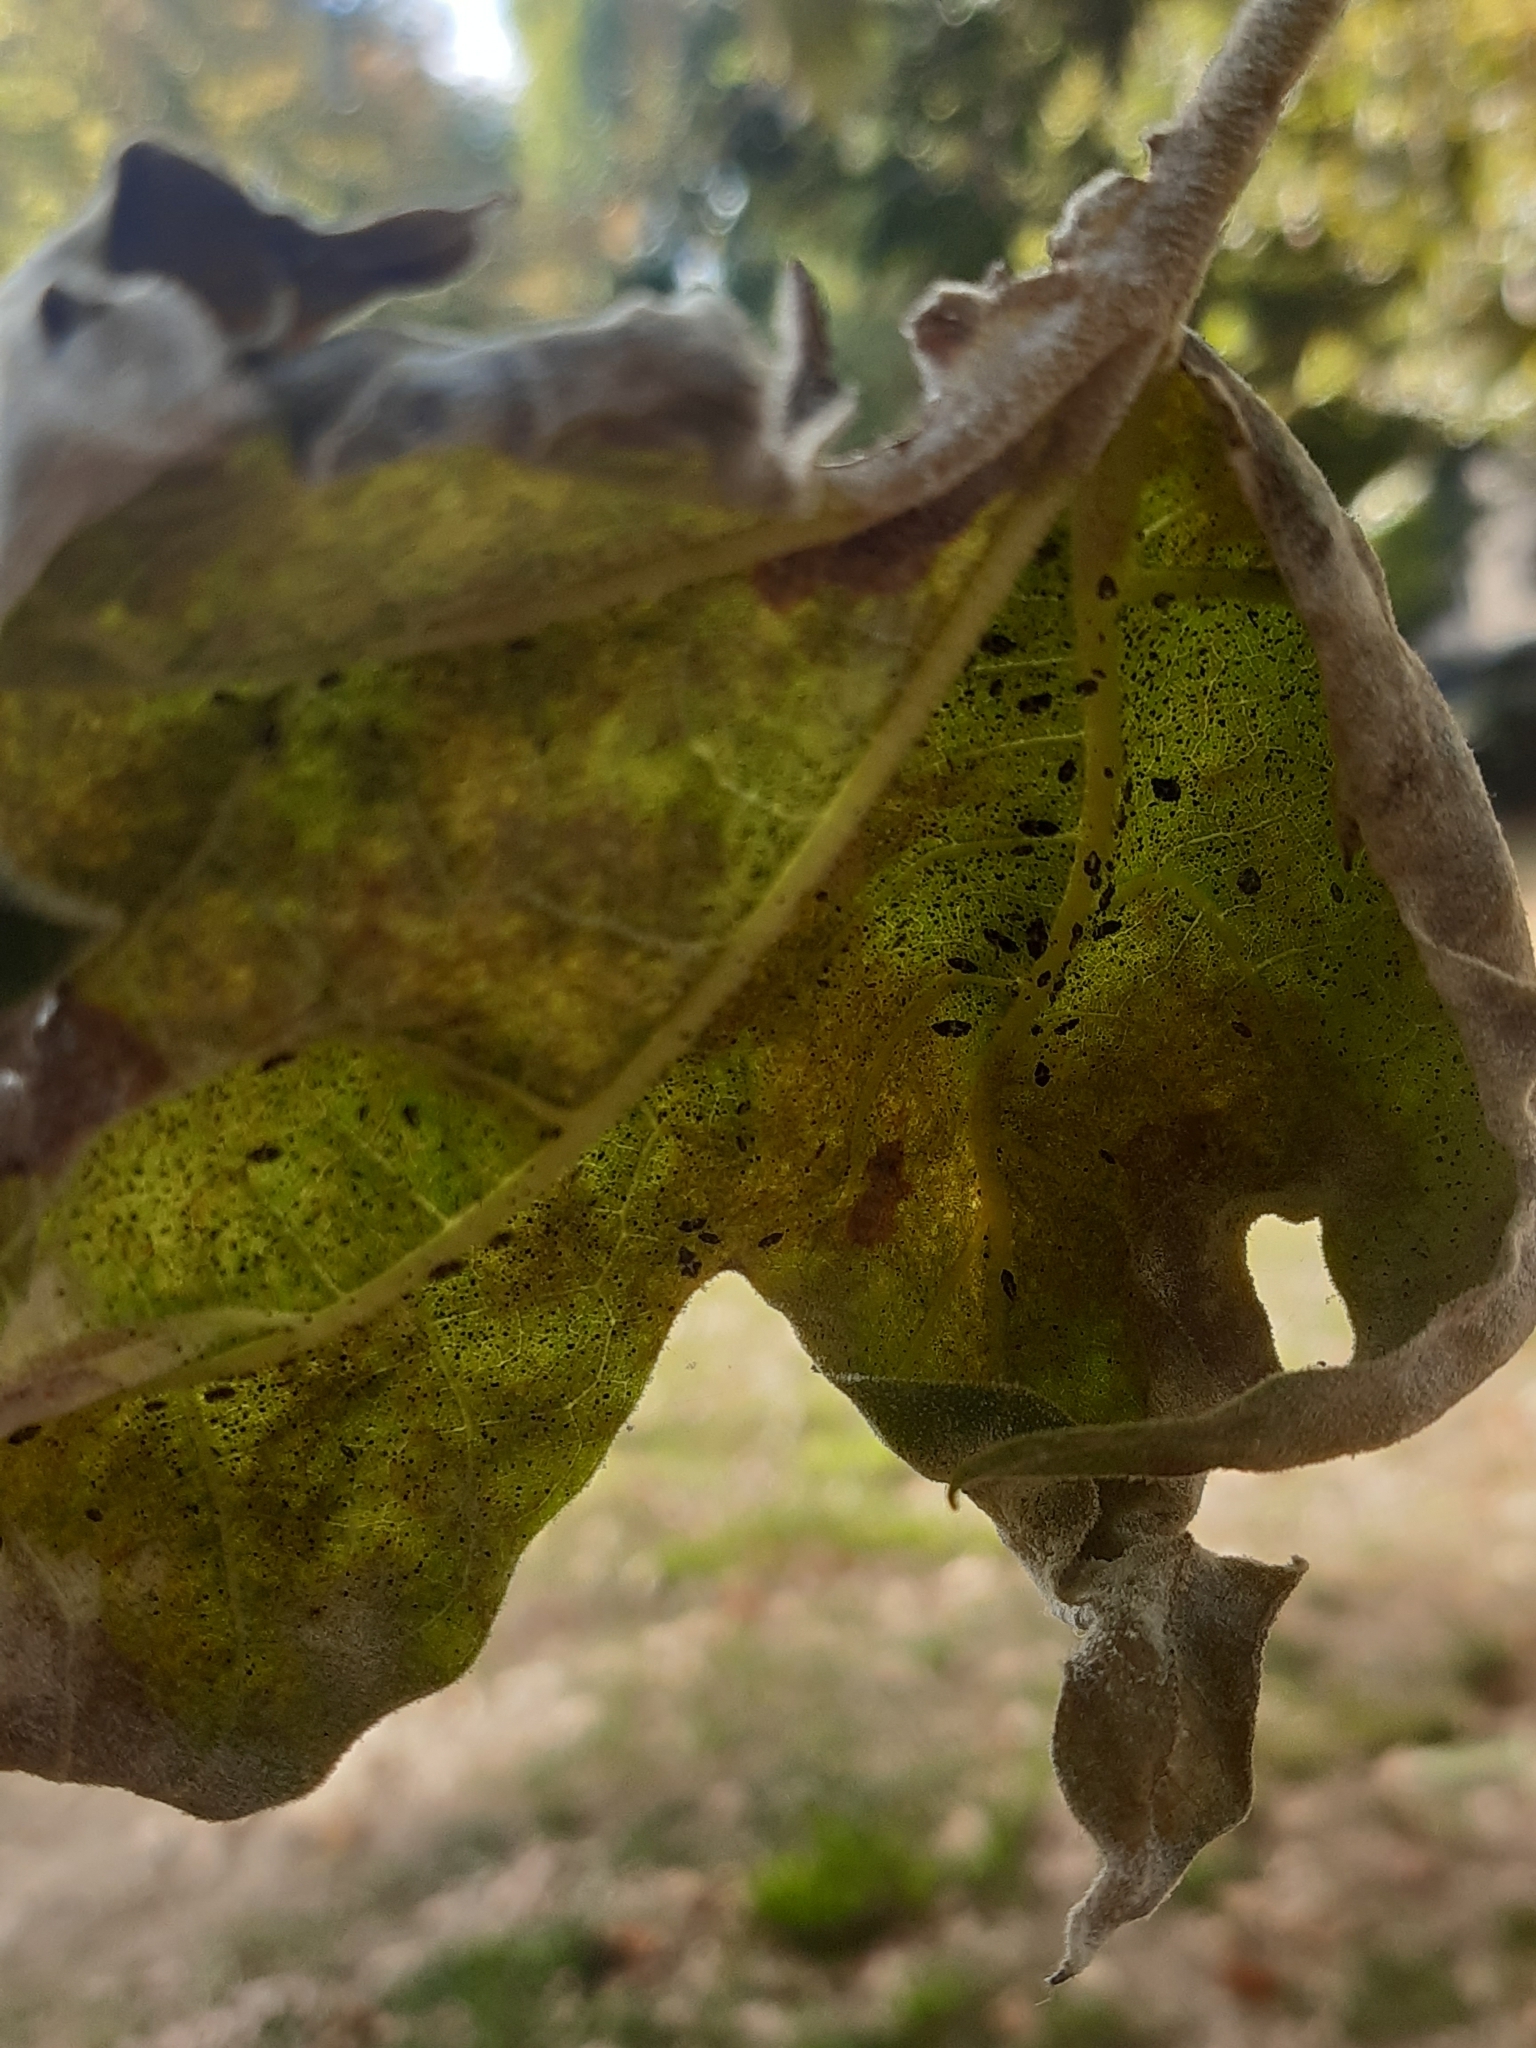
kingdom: Animalia
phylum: Arthropoda
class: Insecta
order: Hemiptera
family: Tingidae
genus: Corythucha
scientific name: Corythucha ciliata
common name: Sycamore lace bug
